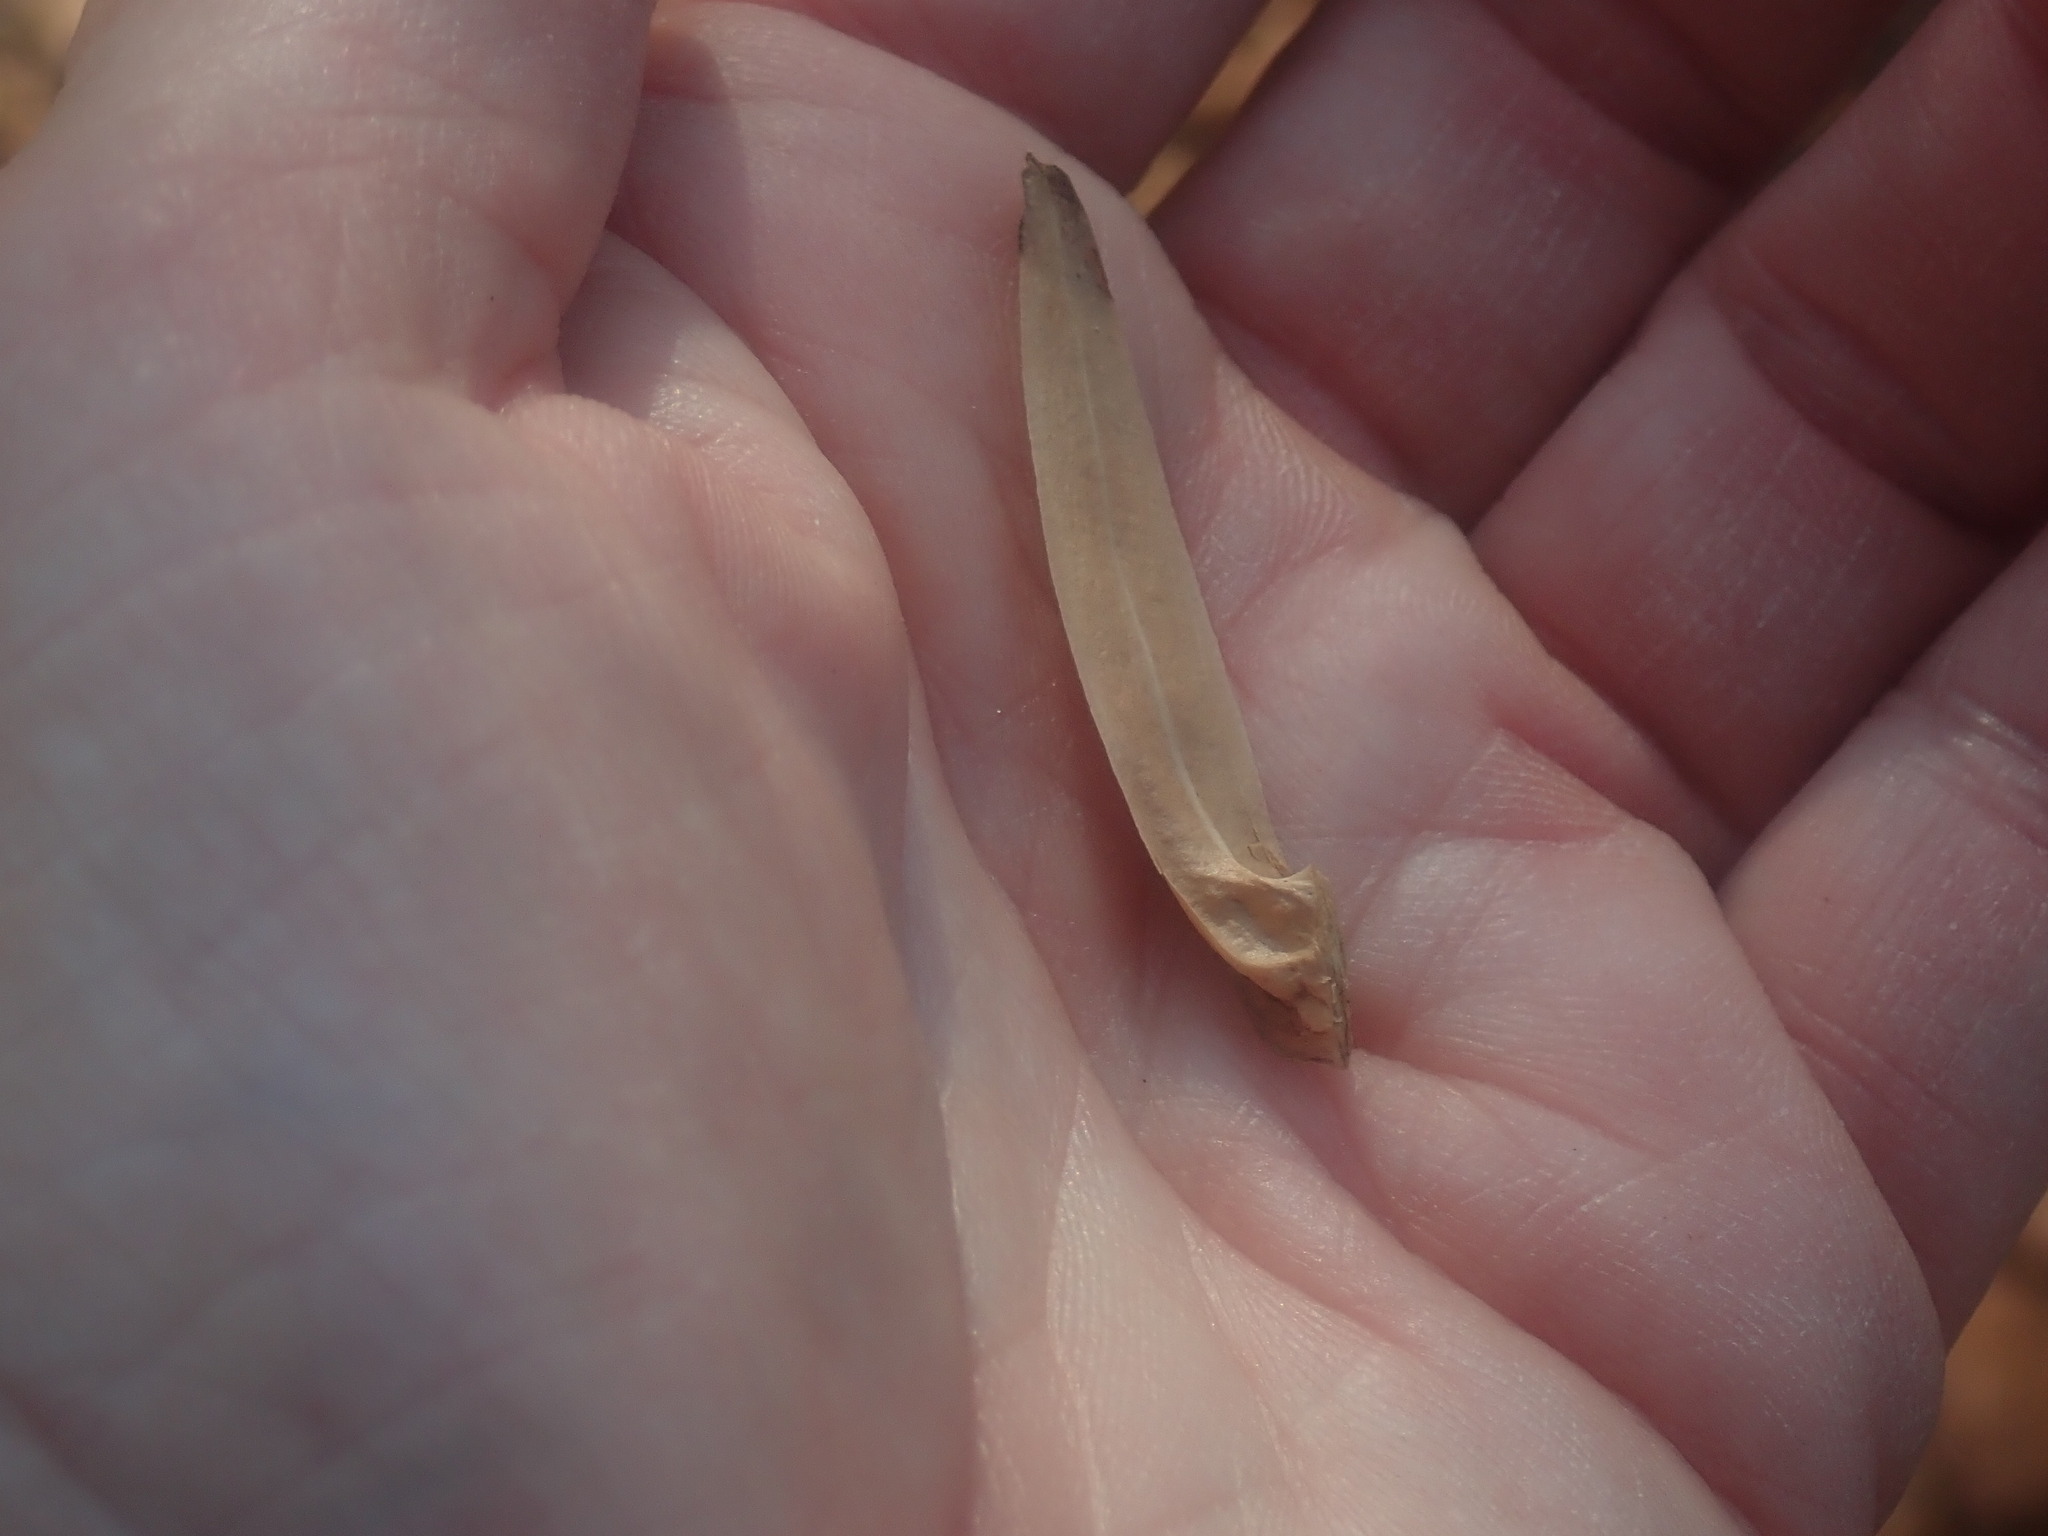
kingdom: Plantae
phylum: Tracheophyta
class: Magnoliopsida
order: Magnoliales
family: Magnoliaceae
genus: Liriodendron
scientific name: Liriodendron tulipifera
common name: Tulip tree
